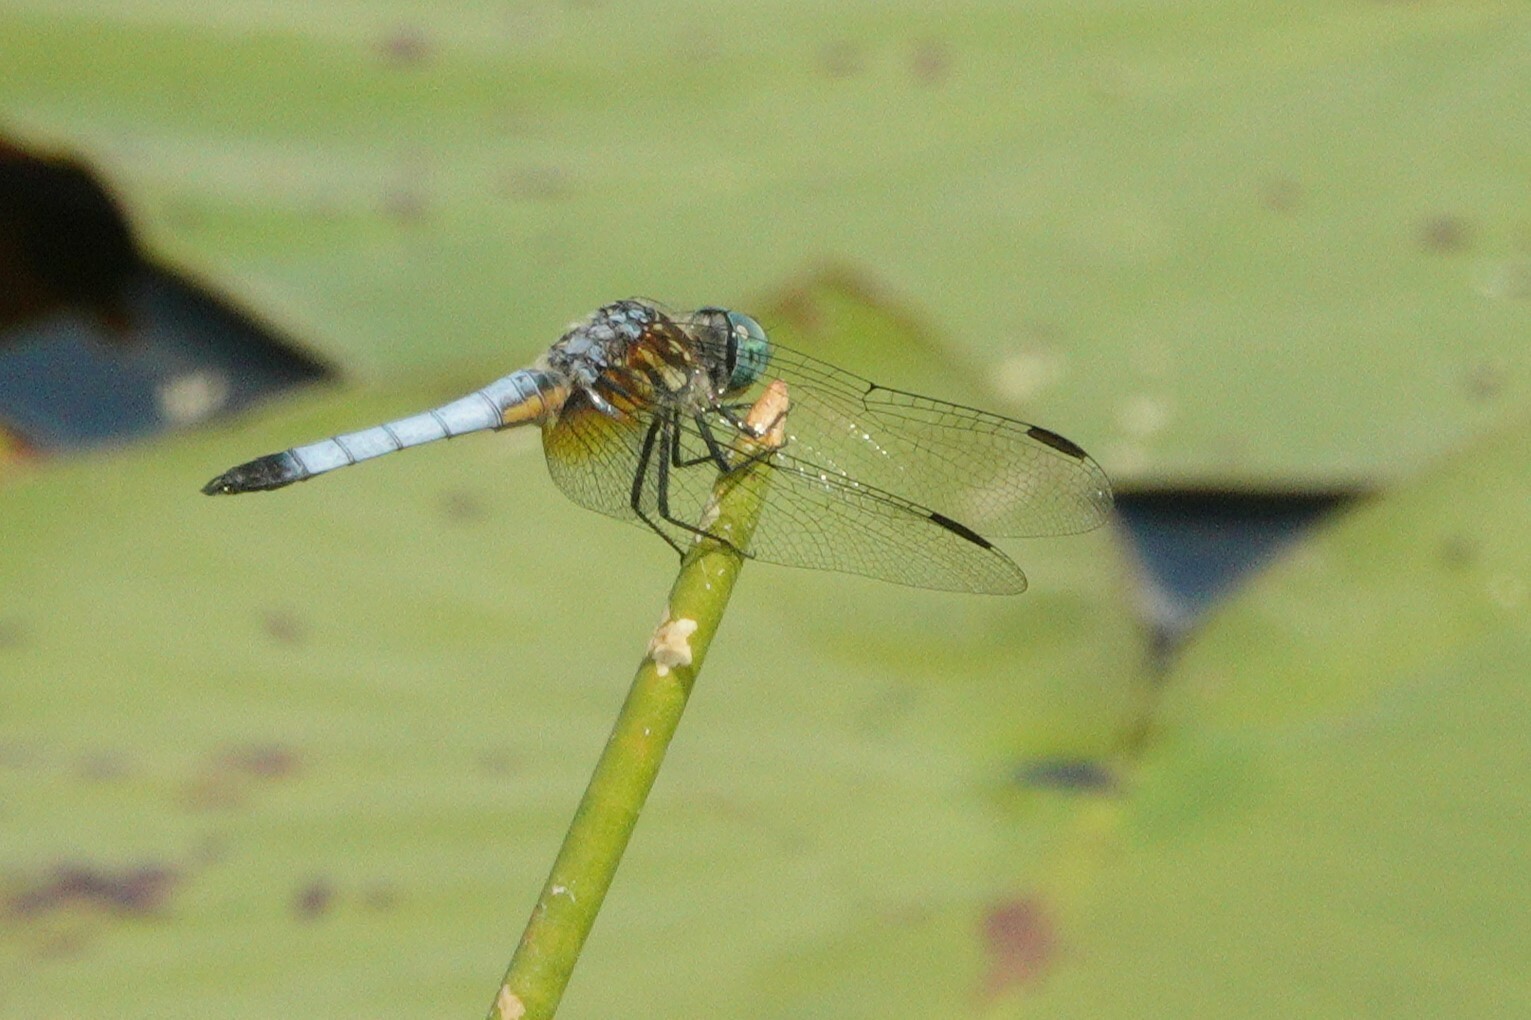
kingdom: Animalia
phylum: Arthropoda
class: Insecta
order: Odonata
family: Libellulidae
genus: Pachydiplax
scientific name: Pachydiplax longipennis
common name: Blue dasher
